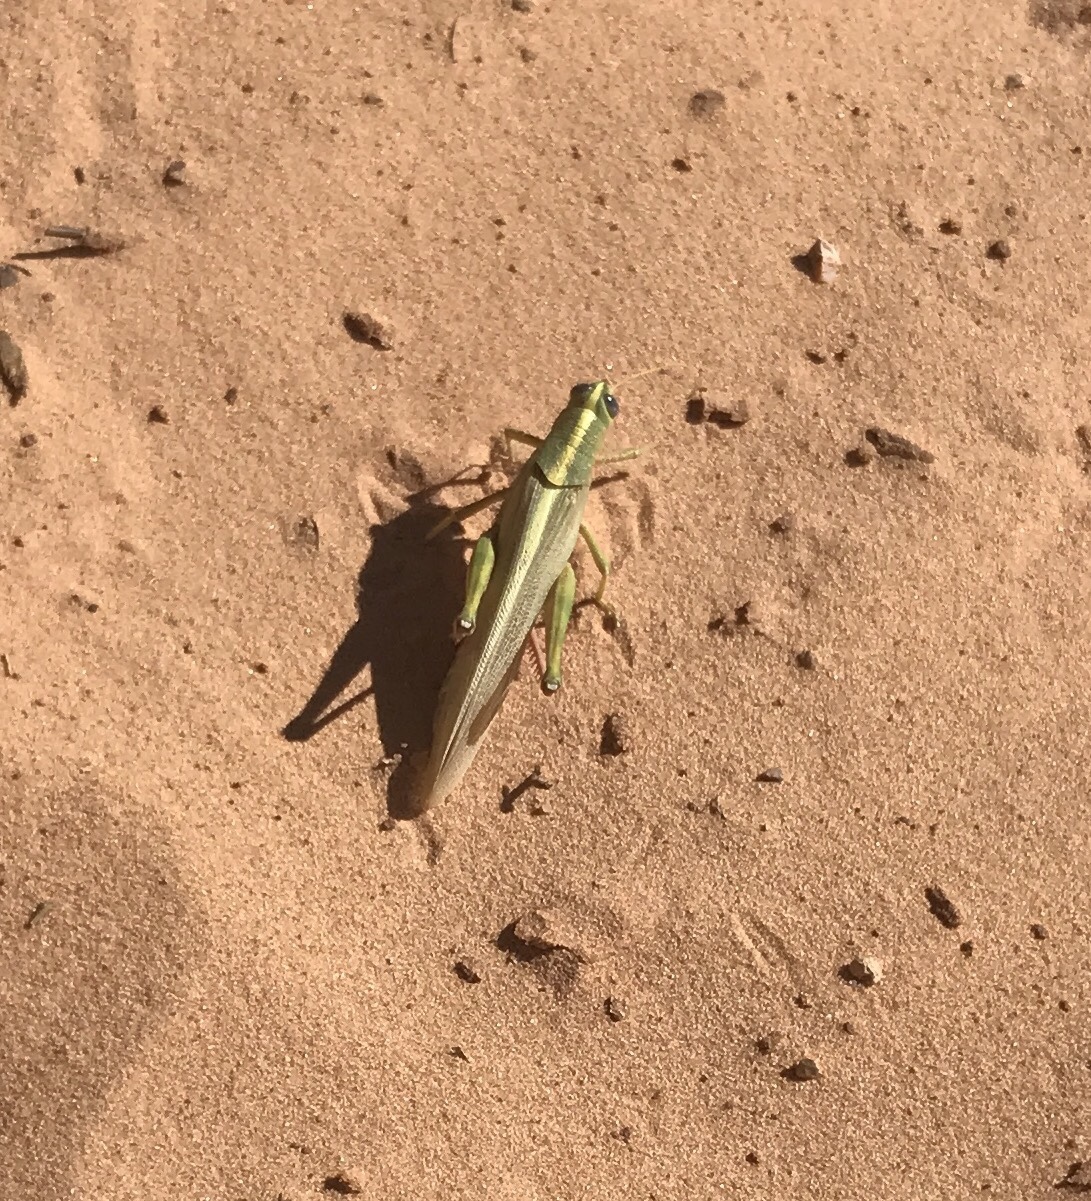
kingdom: Animalia
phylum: Arthropoda
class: Insecta
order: Orthoptera
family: Acrididae
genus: Schistocerca
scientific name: Schistocerca lineata
